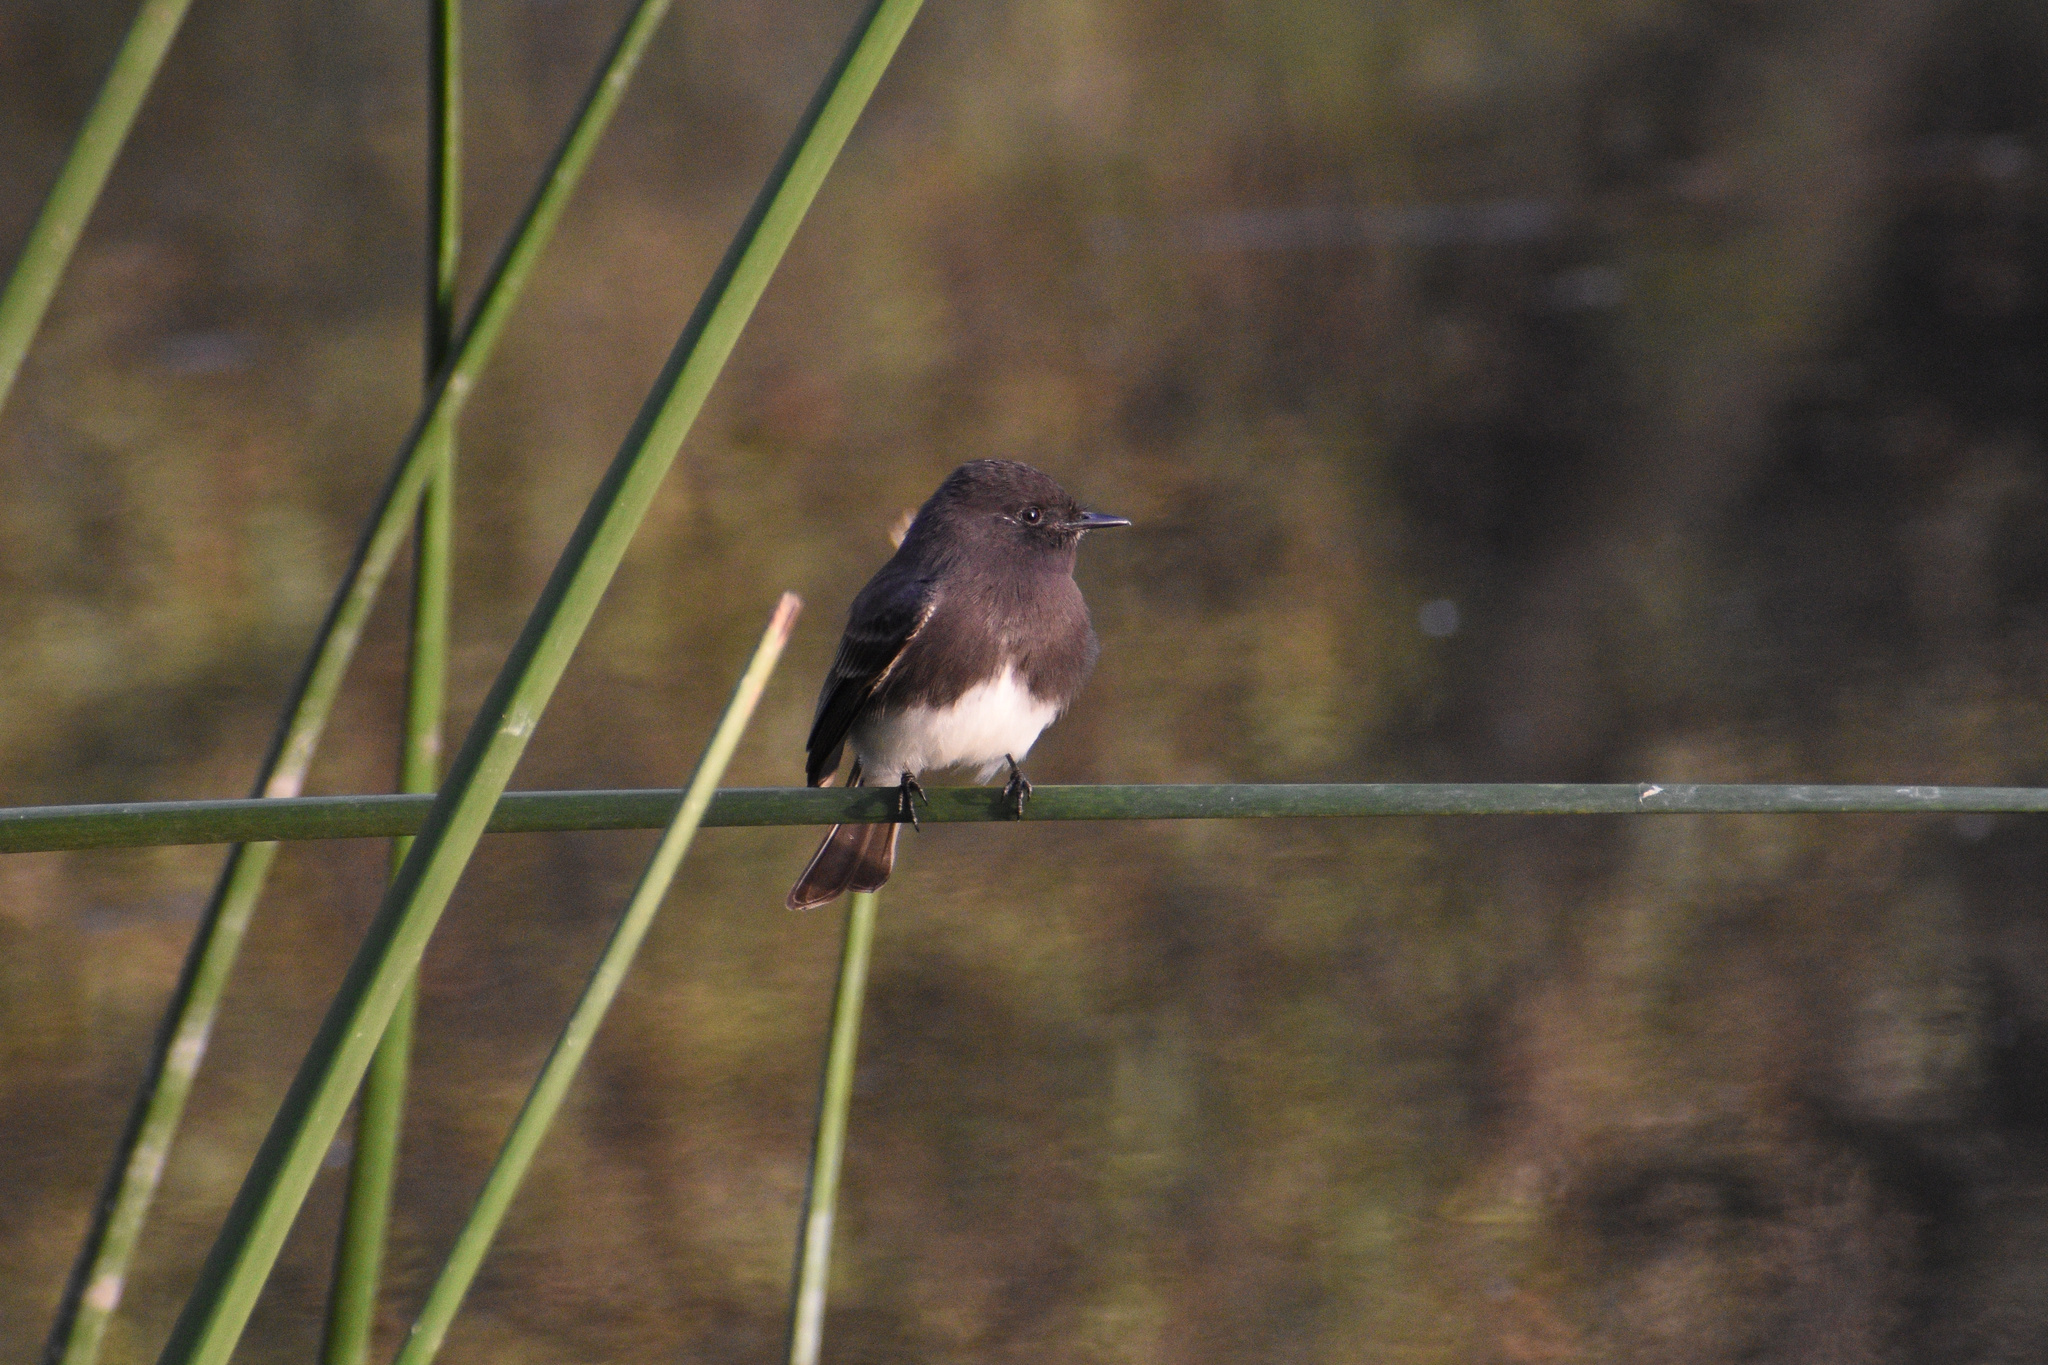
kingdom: Animalia
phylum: Chordata
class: Aves
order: Passeriformes
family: Tyrannidae
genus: Sayornis
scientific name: Sayornis nigricans
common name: Black phoebe
